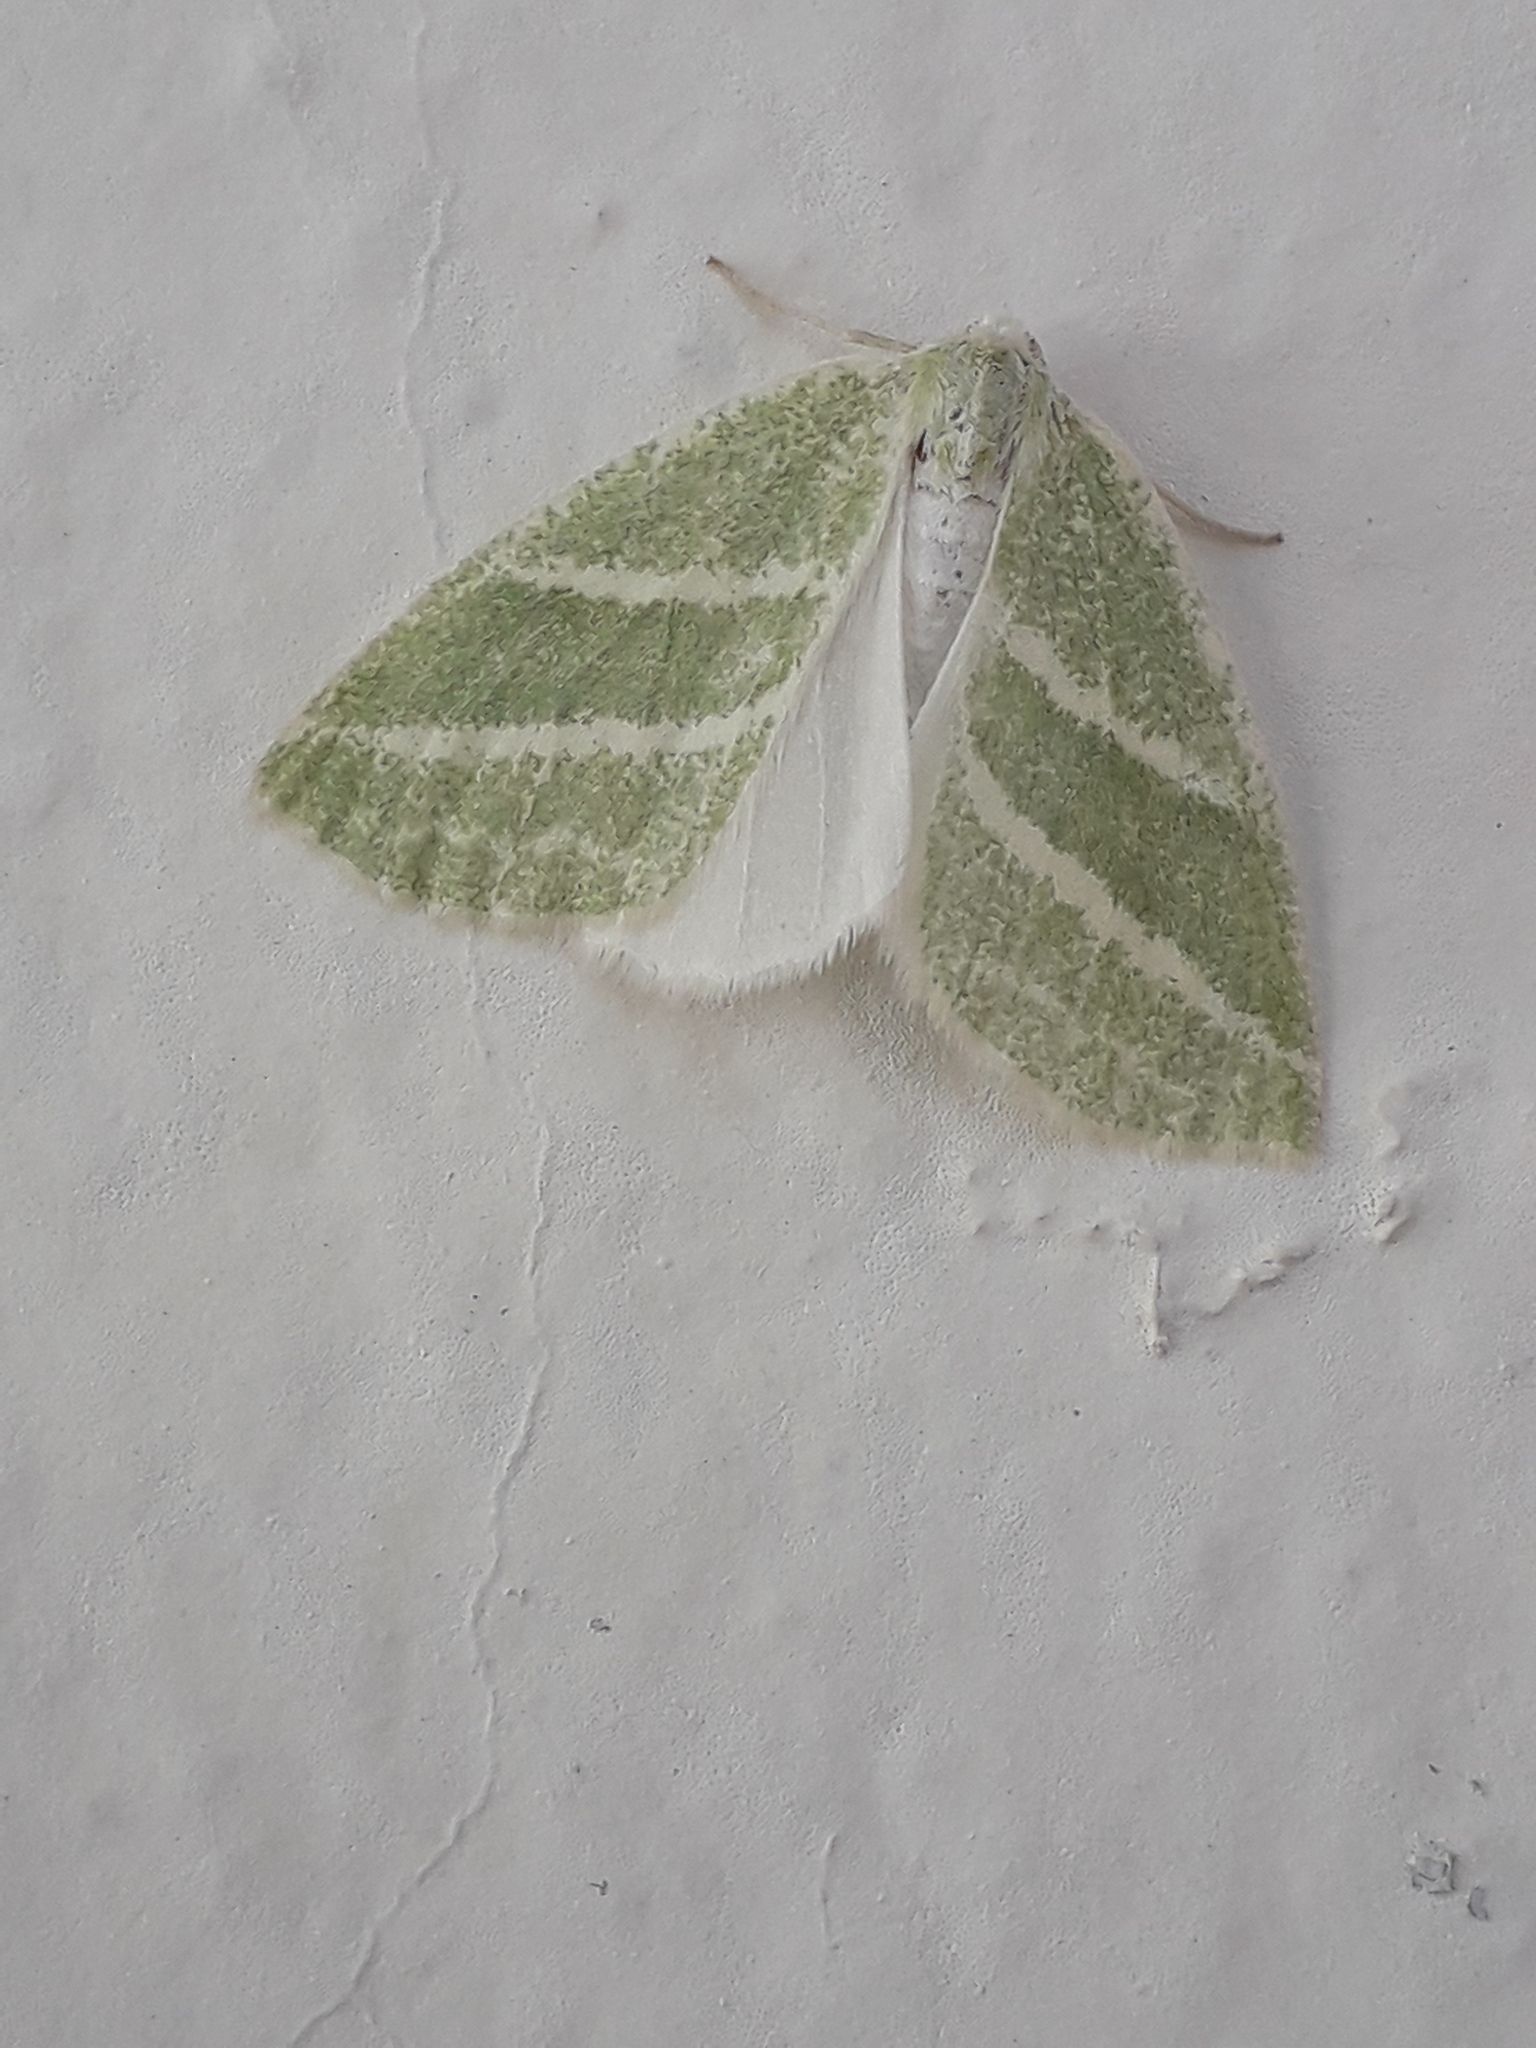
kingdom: Animalia
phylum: Arthropoda
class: Insecta
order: Lepidoptera
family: Geometridae
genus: Synchlora
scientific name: Synchlora bistriaria
